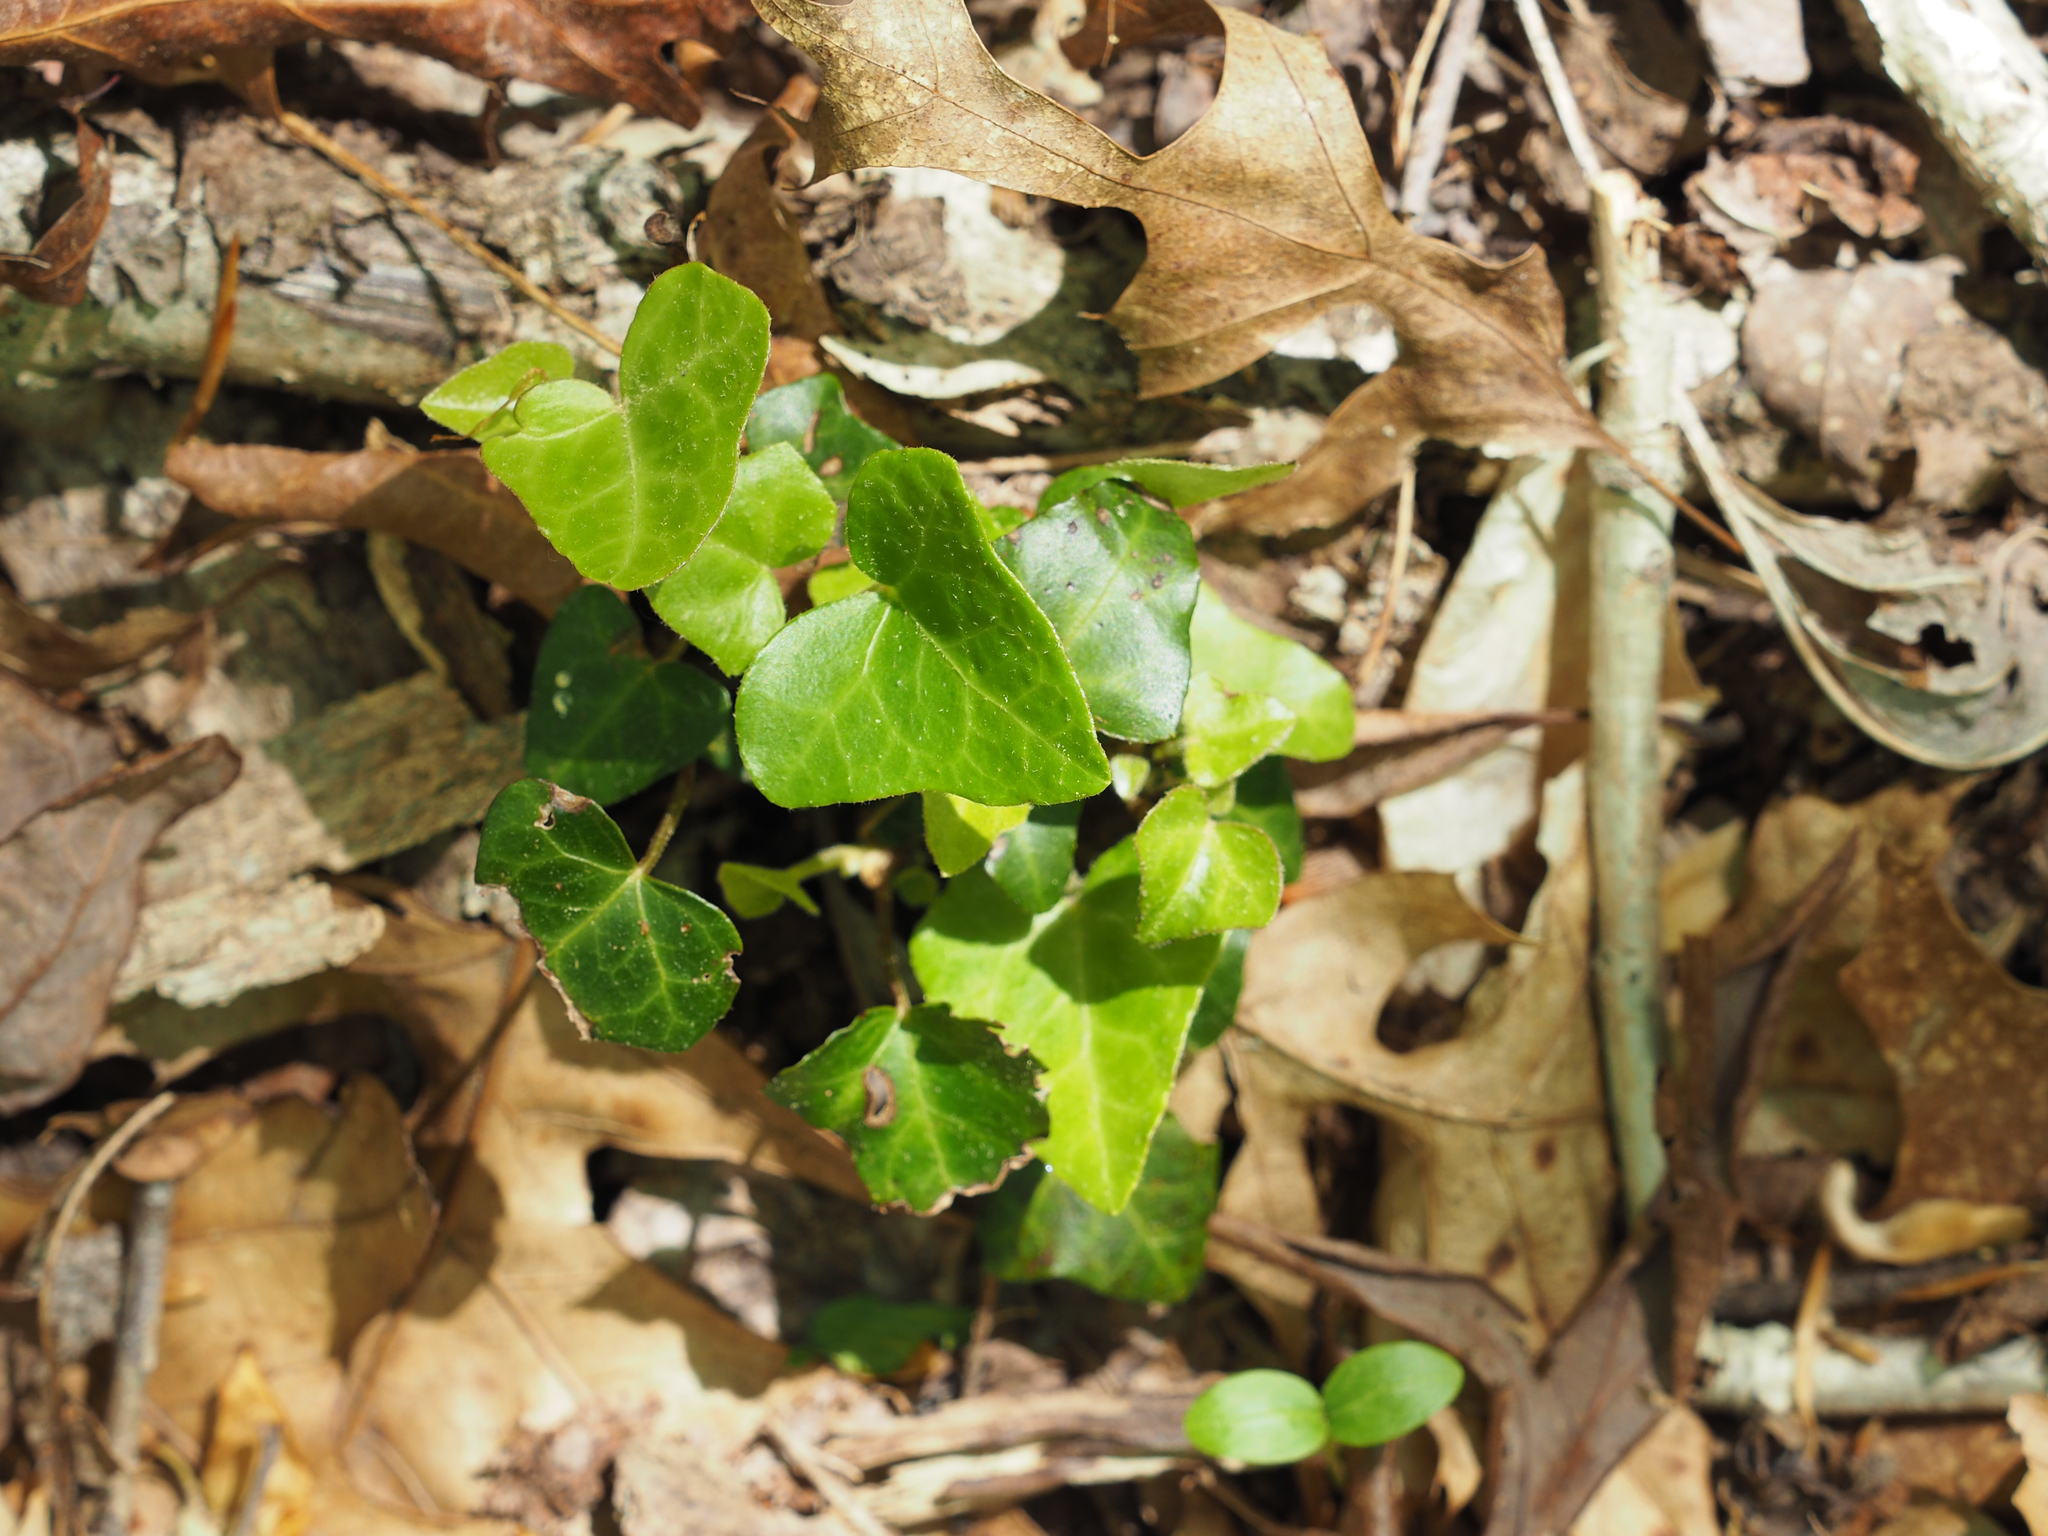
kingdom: Plantae
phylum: Tracheophyta
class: Magnoliopsida
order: Apiales
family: Araliaceae
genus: Hedera
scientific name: Hedera helix
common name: Ivy
